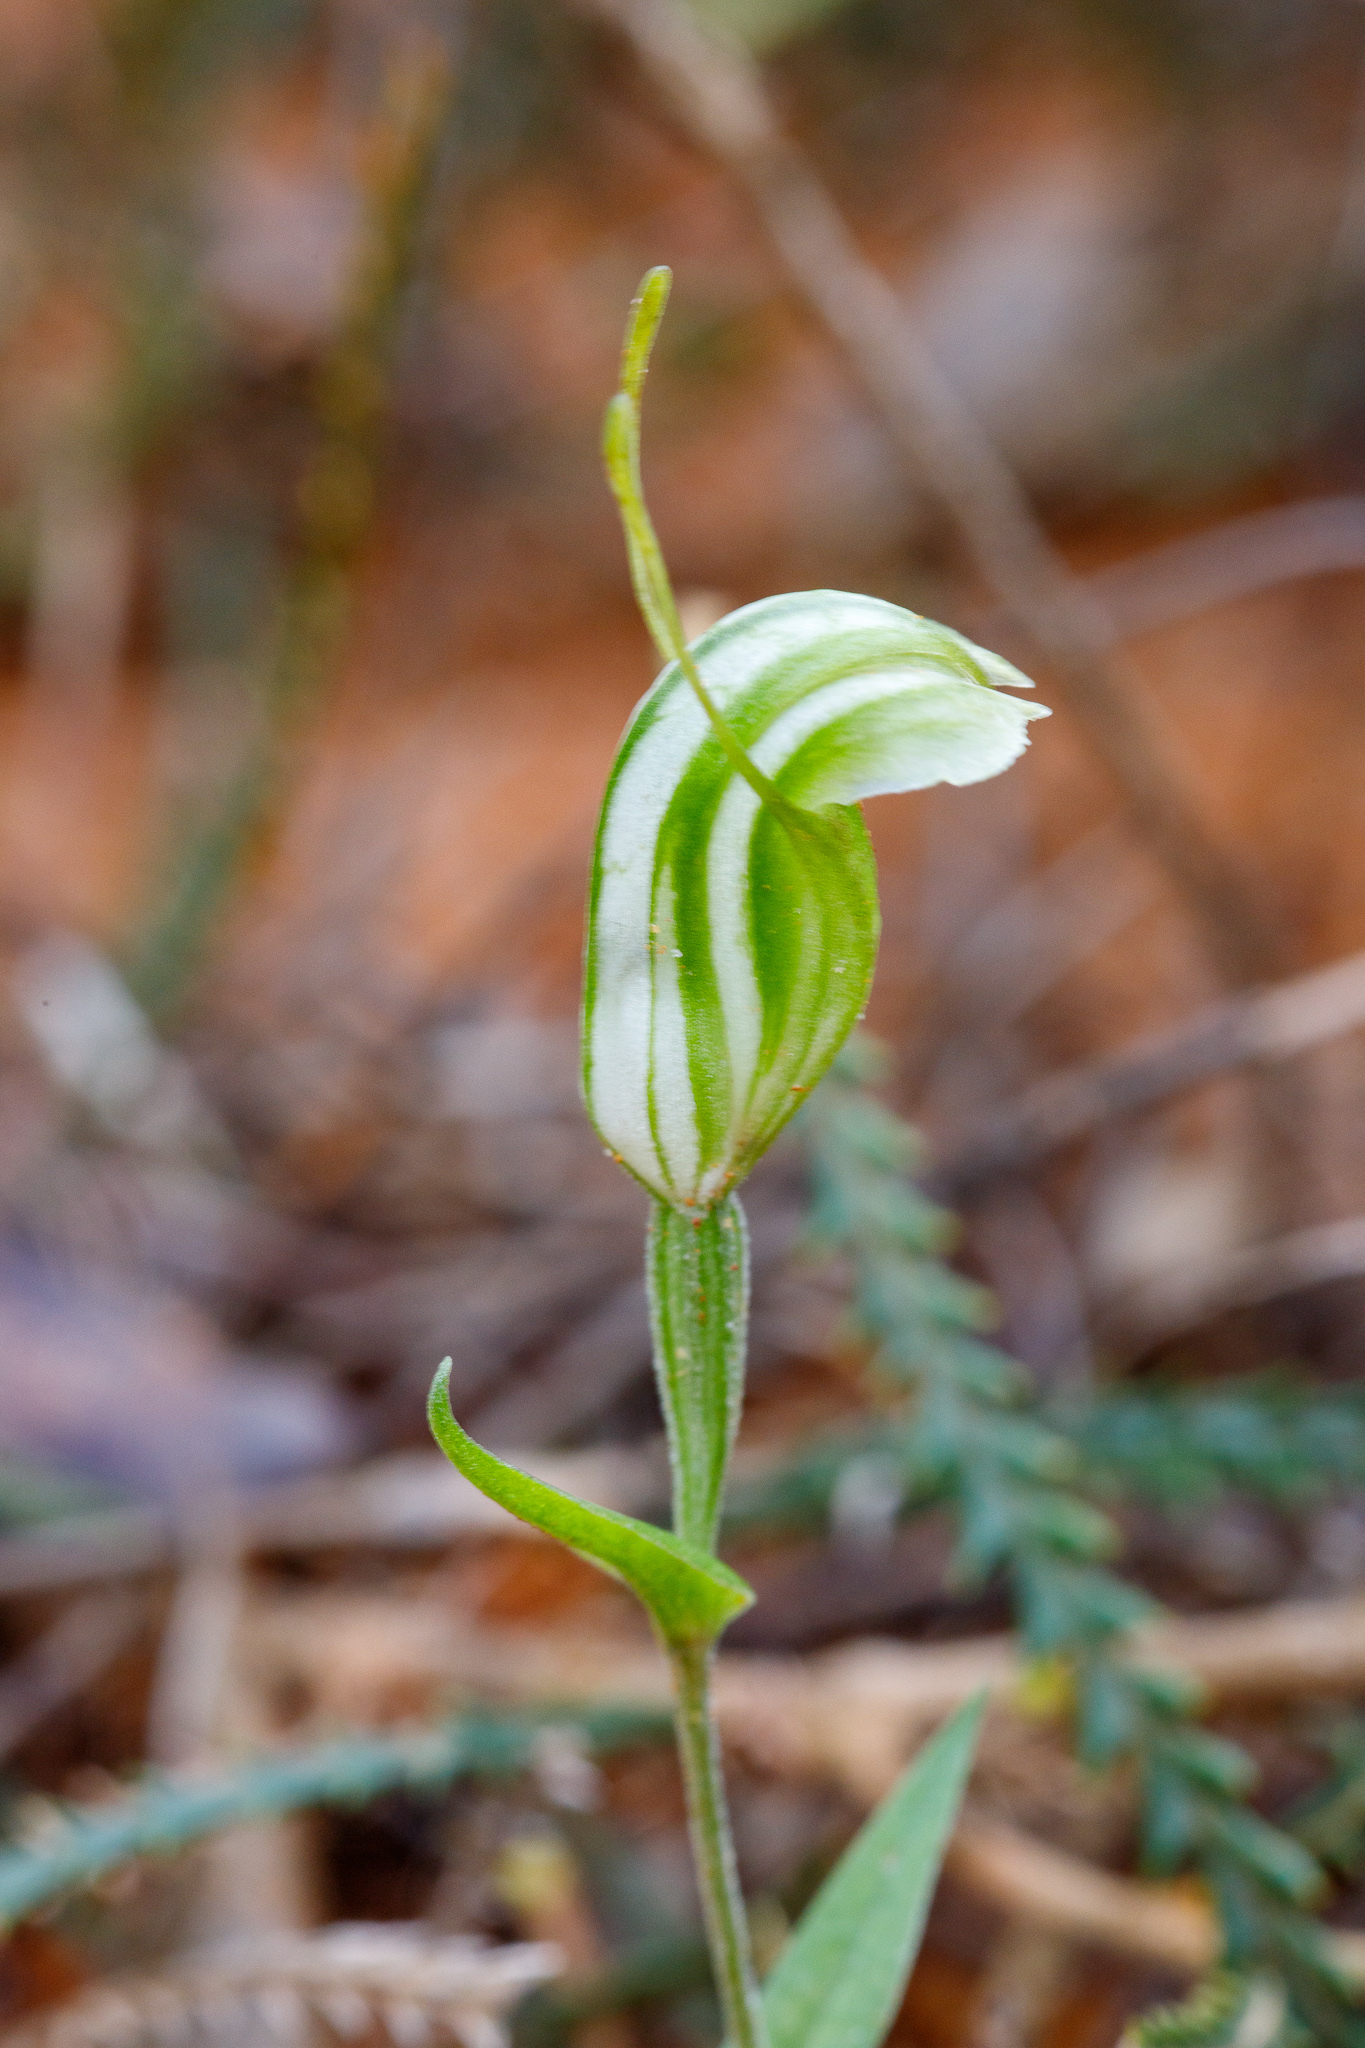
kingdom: Plantae
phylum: Tracheophyta
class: Liliopsida
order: Asparagales
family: Orchidaceae
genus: Pterostylis
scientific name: Pterostylis dilatata
